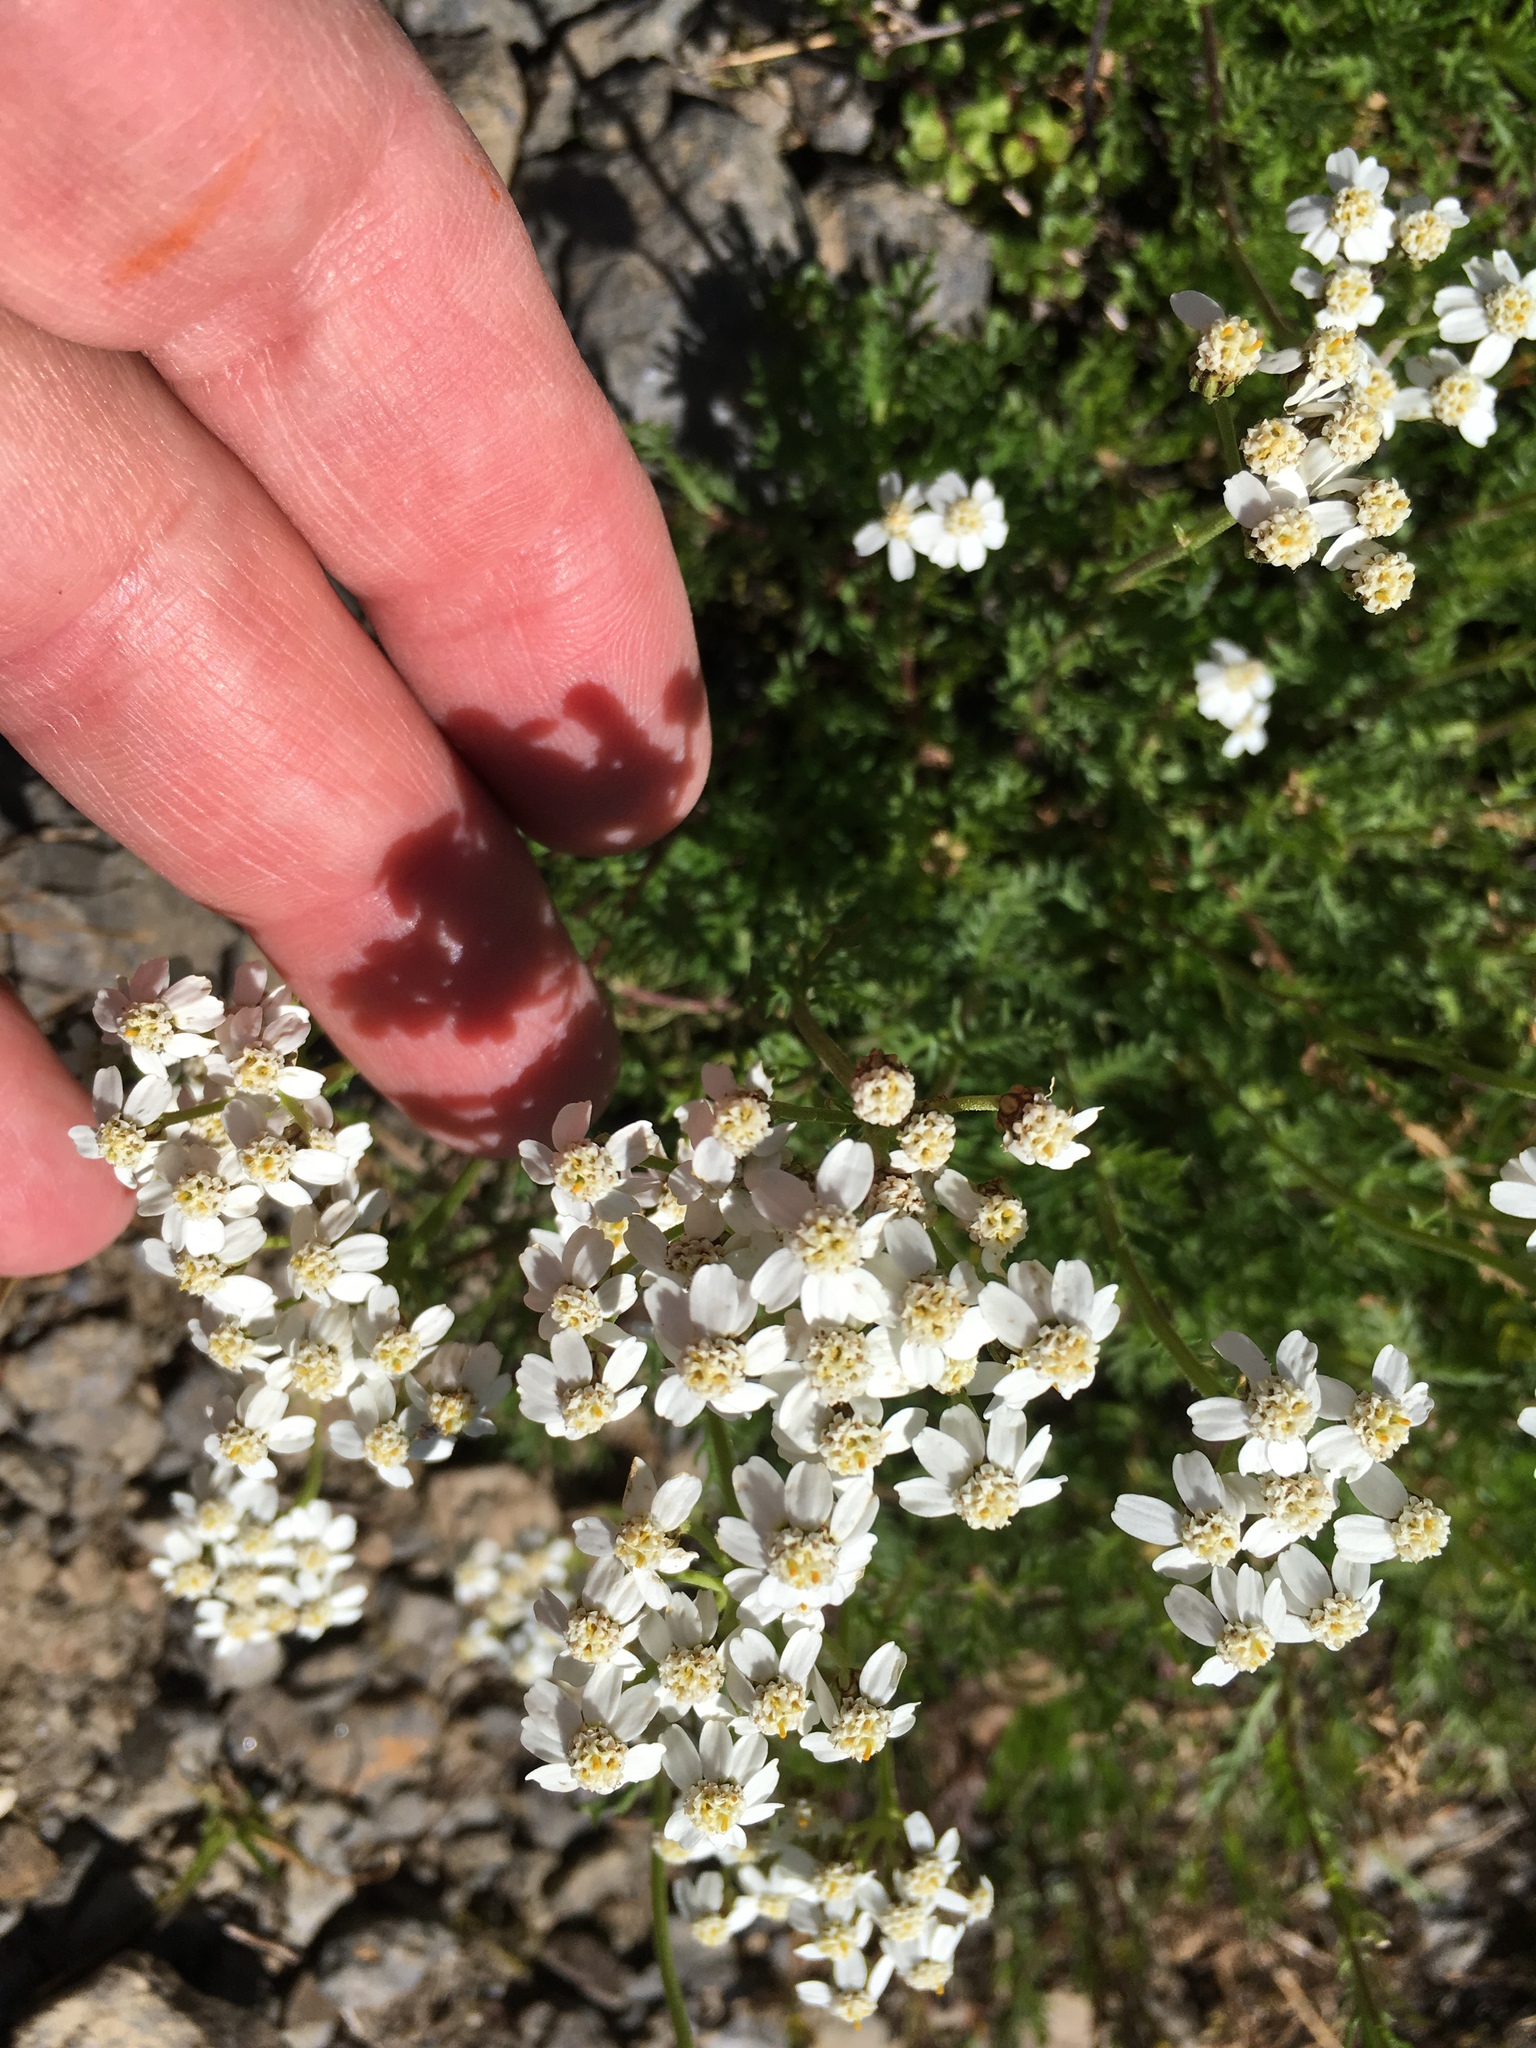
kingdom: Plantae
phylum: Tracheophyta
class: Magnoliopsida
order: Asterales
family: Asteraceae
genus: Achillea
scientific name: Achillea erba-rotta
